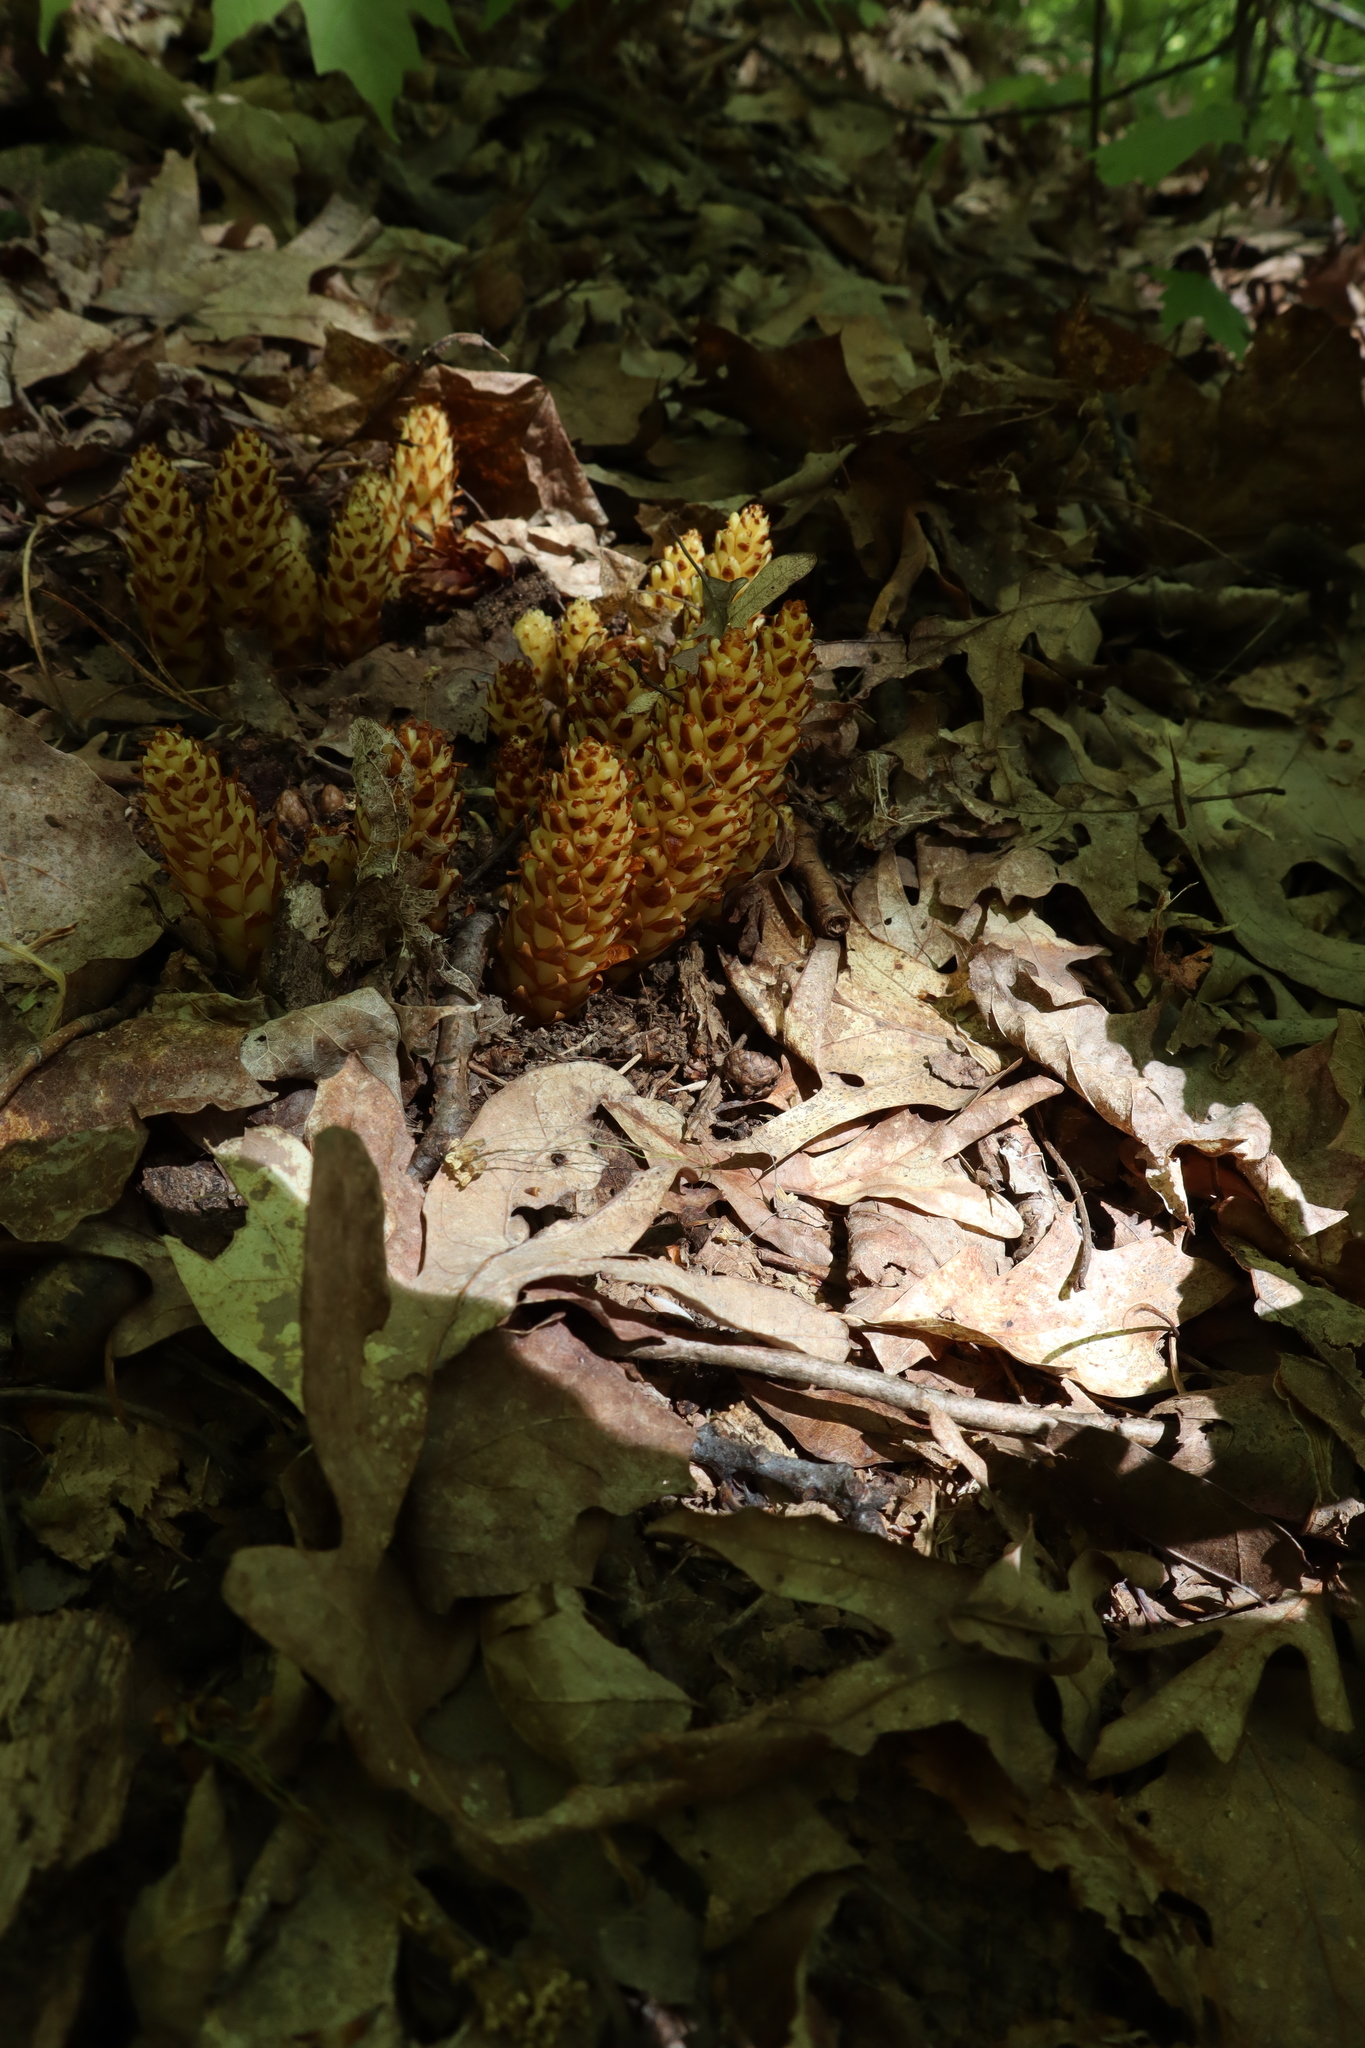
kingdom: Plantae
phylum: Tracheophyta
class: Magnoliopsida
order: Lamiales
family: Orobanchaceae
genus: Conopholis
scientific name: Conopholis americana
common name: American cancer-root
